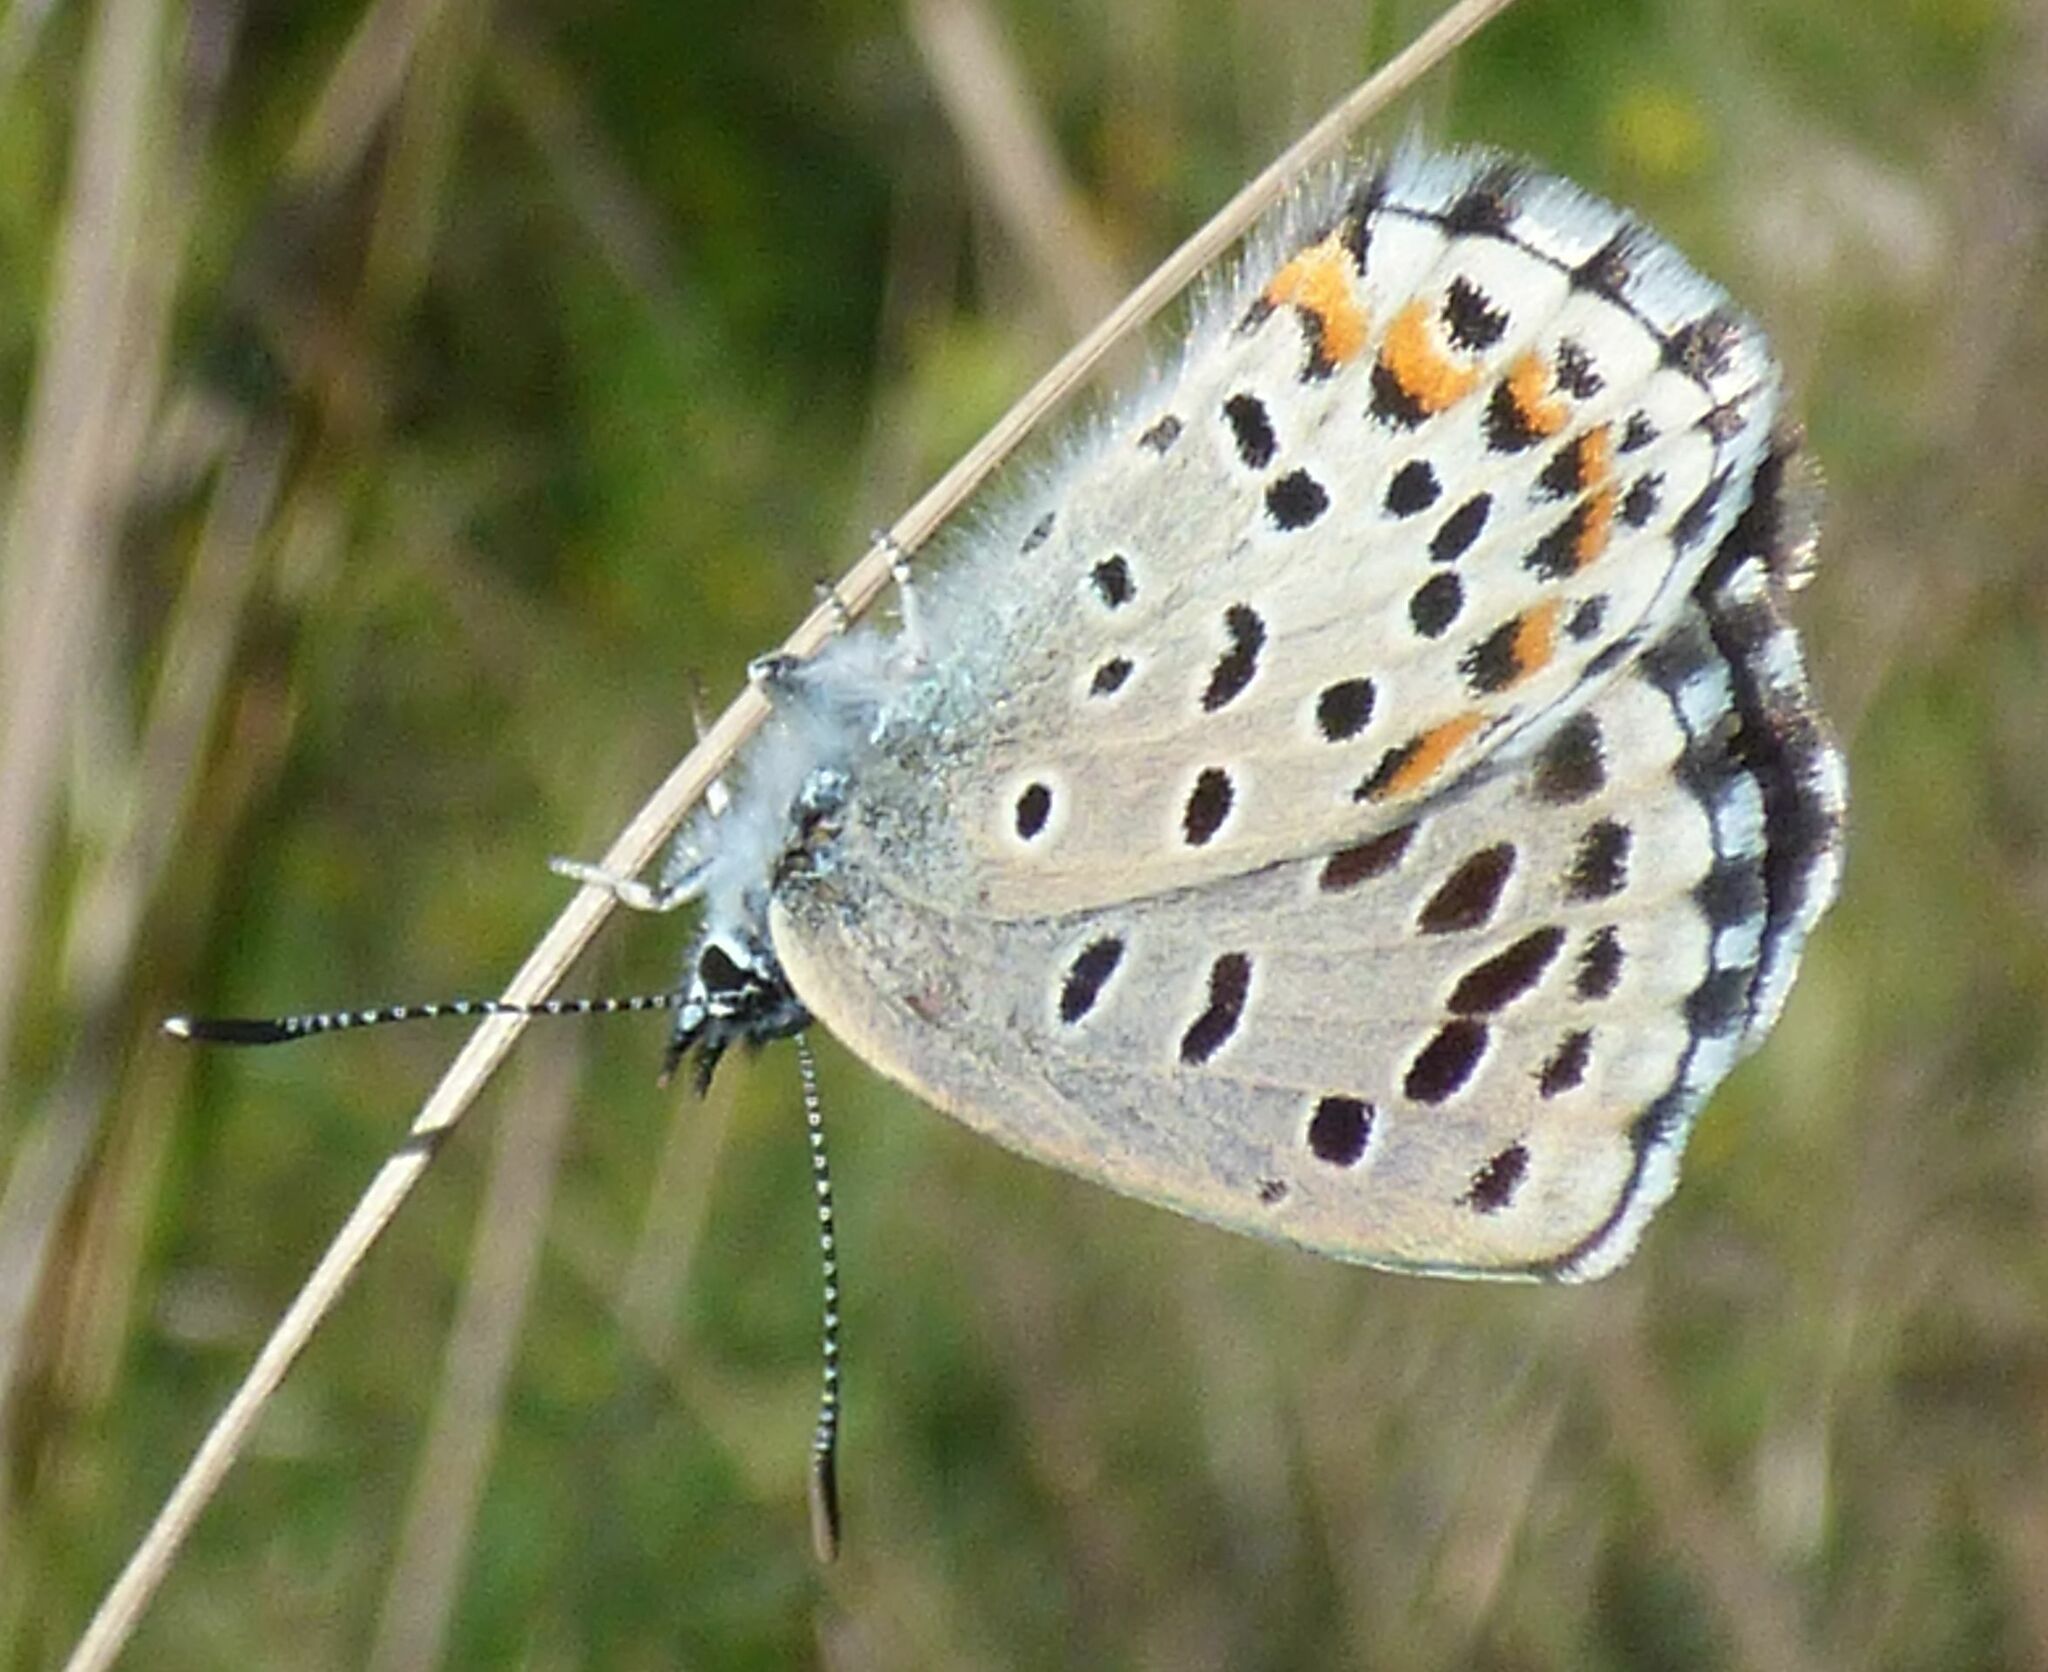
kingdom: Animalia
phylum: Arthropoda
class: Insecta
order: Lepidoptera
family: Lycaenidae
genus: Pseudophilotes
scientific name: Pseudophilotes bavius
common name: Bavius blue
